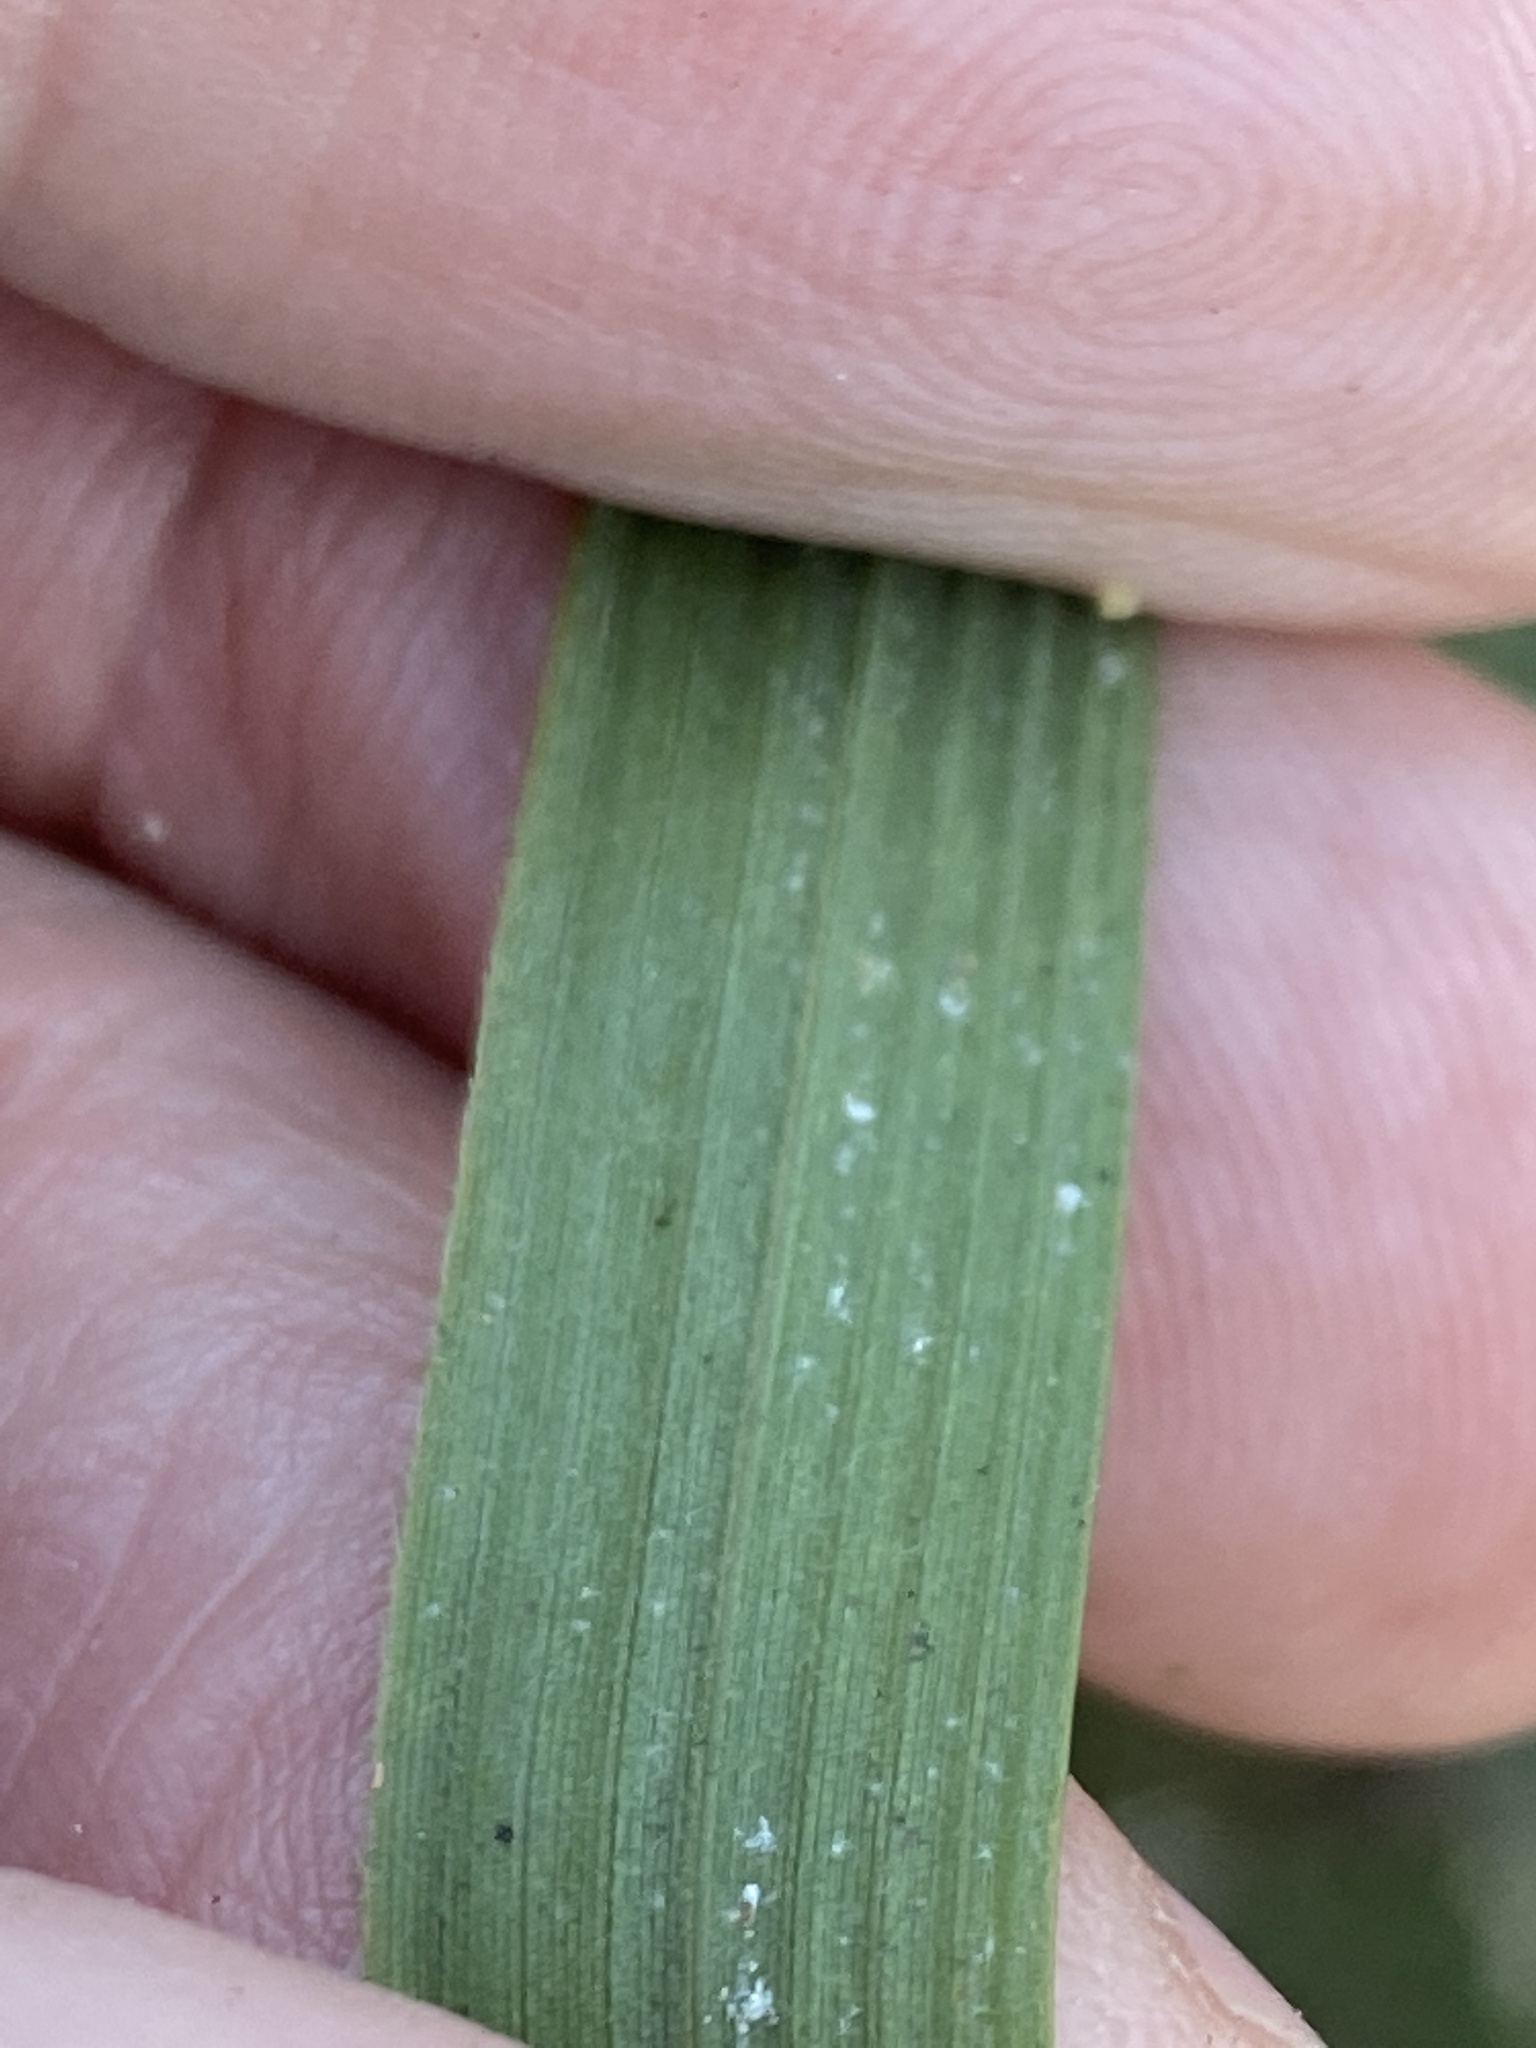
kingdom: Plantae
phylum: Tracheophyta
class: Liliopsida
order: Poales
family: Poaceae
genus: Arundinaria
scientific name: Arundinaria gigantea
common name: Giant cane
